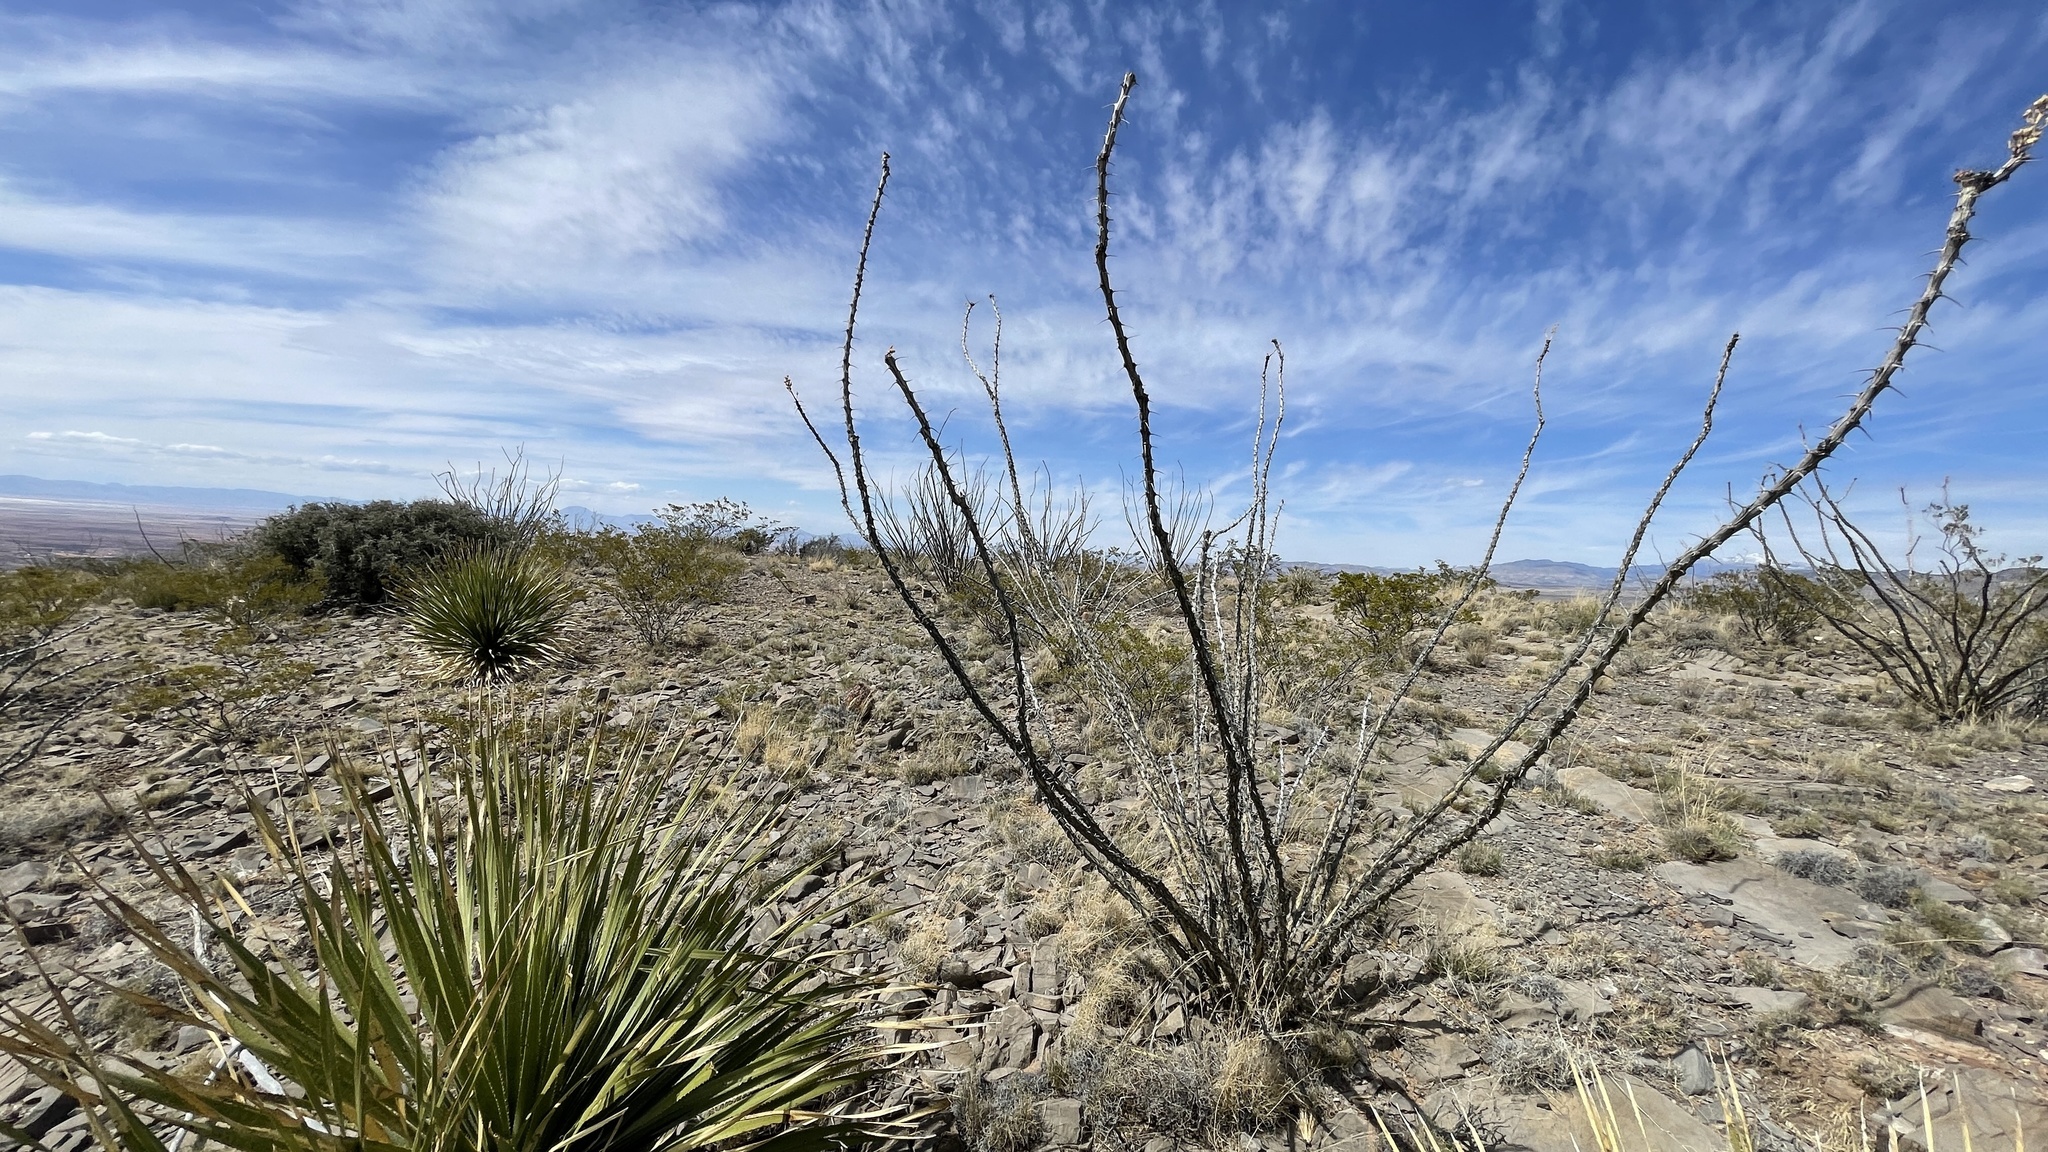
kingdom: Plantae
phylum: Tracheophyta
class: Magnoliopsida
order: Ericales
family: Fouquieriaceae
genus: Fouquieria
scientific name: Fouquieria splendens
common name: Vine-cactus
